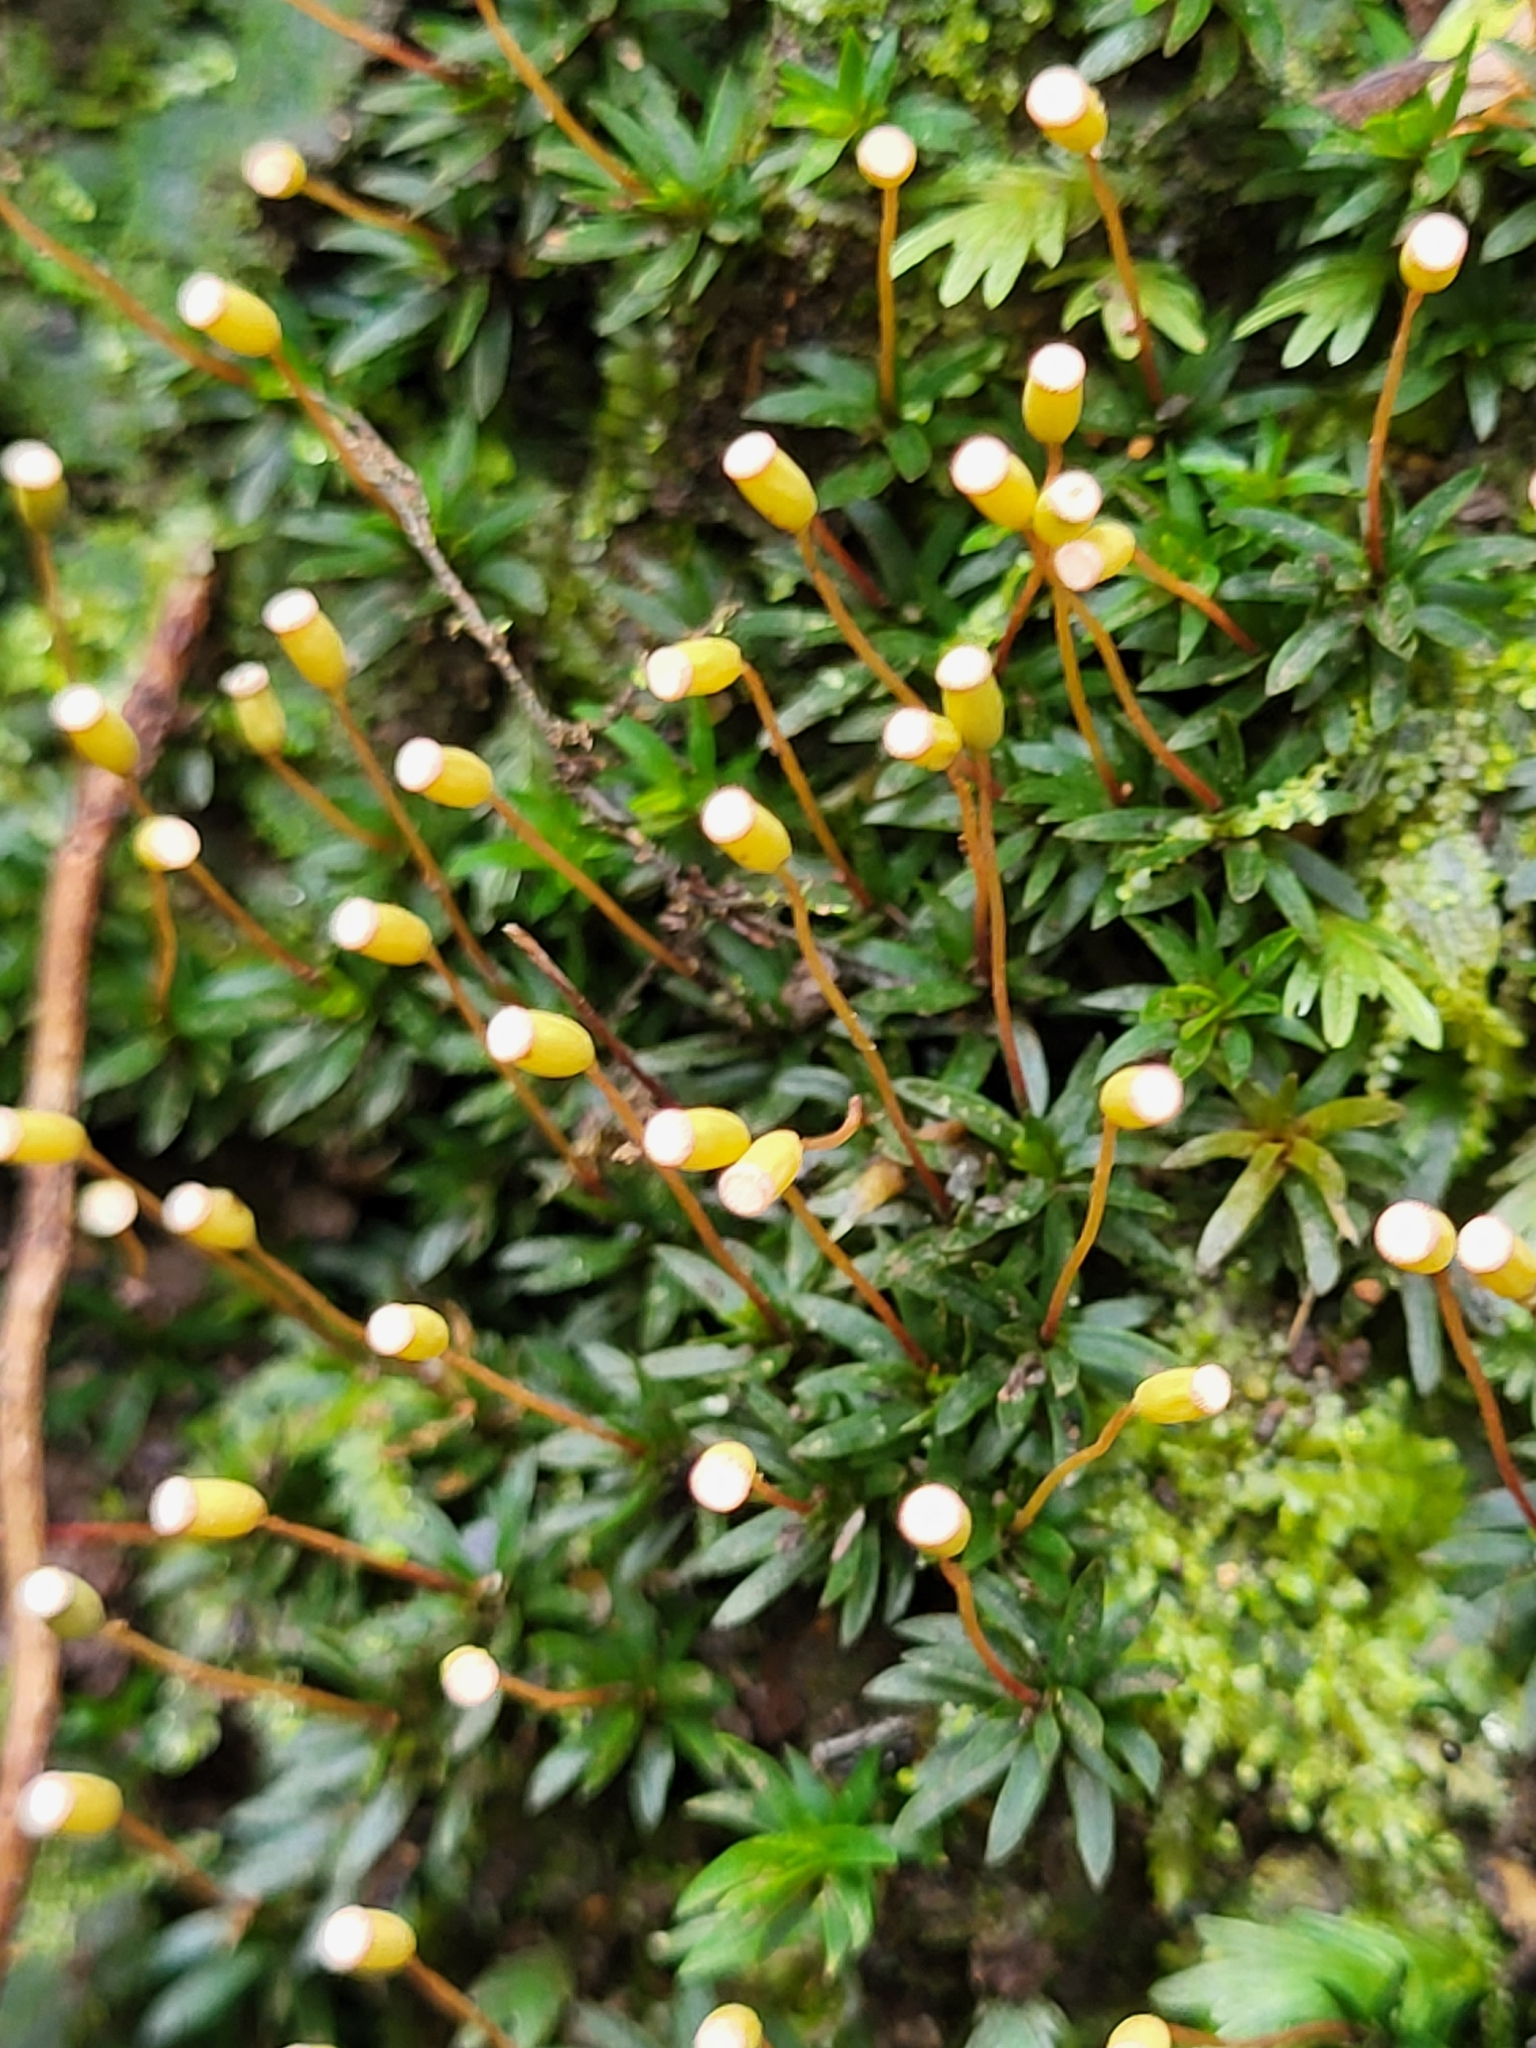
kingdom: Plantae
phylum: Bryophyta
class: Polytrichopsida
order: Polytrichales
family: Polytrichaceae
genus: Pogonatum
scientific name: Pogonatum aloides
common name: Aloe haircap
